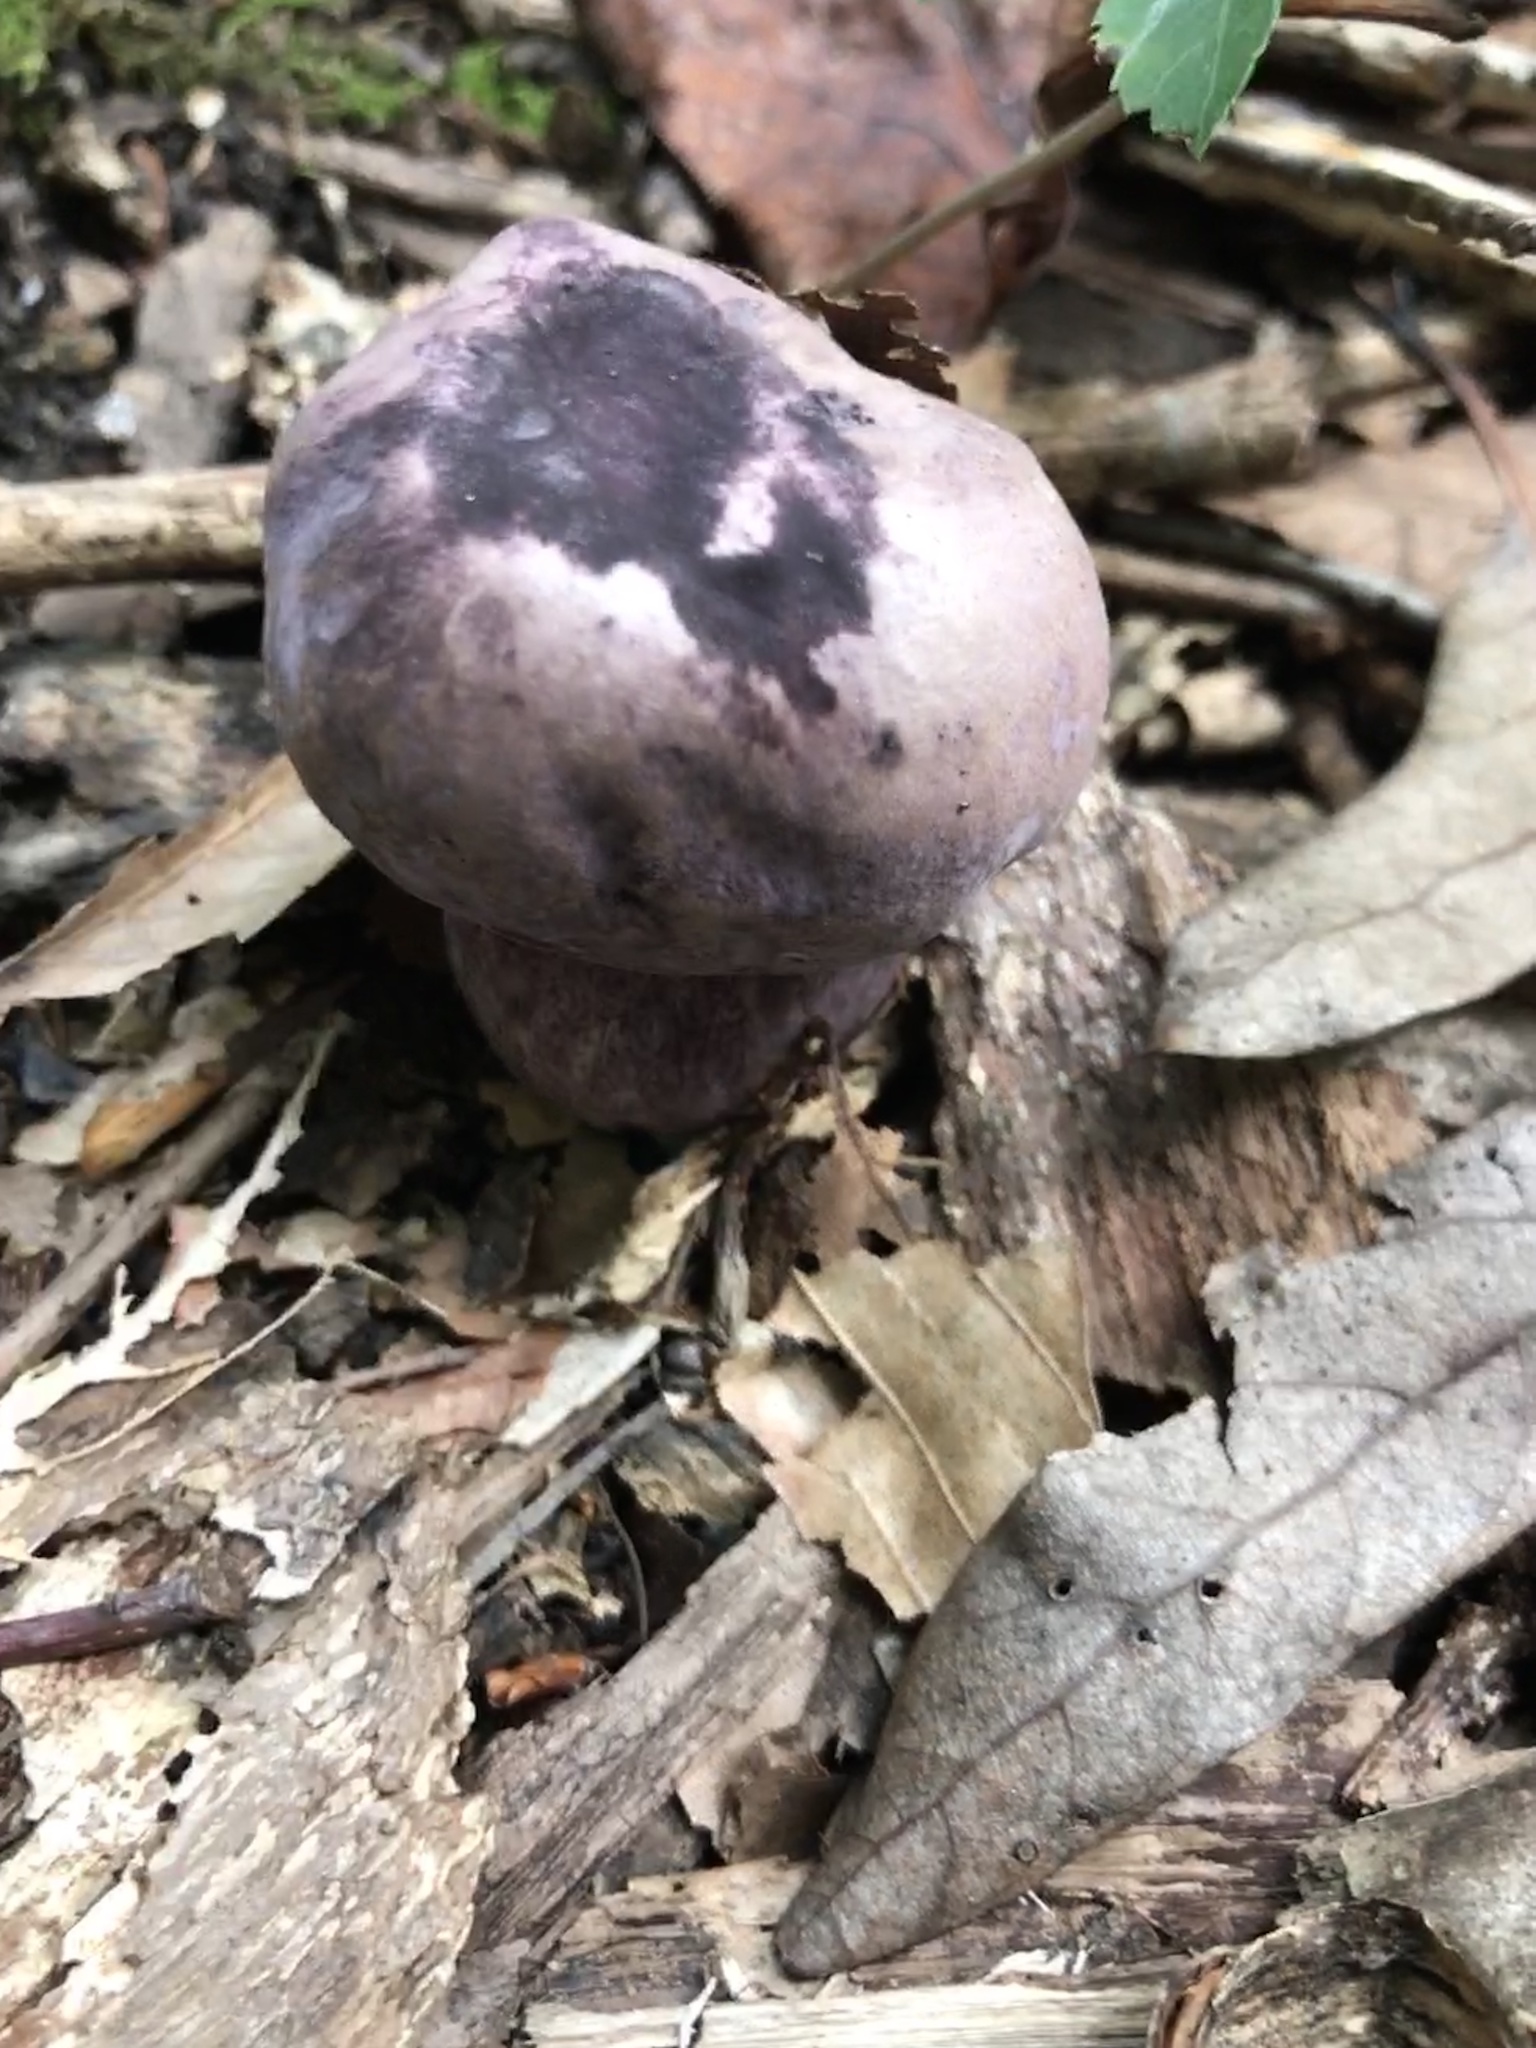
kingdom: Fungi
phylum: Basidiomycota
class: Agaricomycetes
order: Boletales
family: Boletaceae
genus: Tylopilus
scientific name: Tylopilus plumbeoviolaceus
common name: Violet gray bolete
